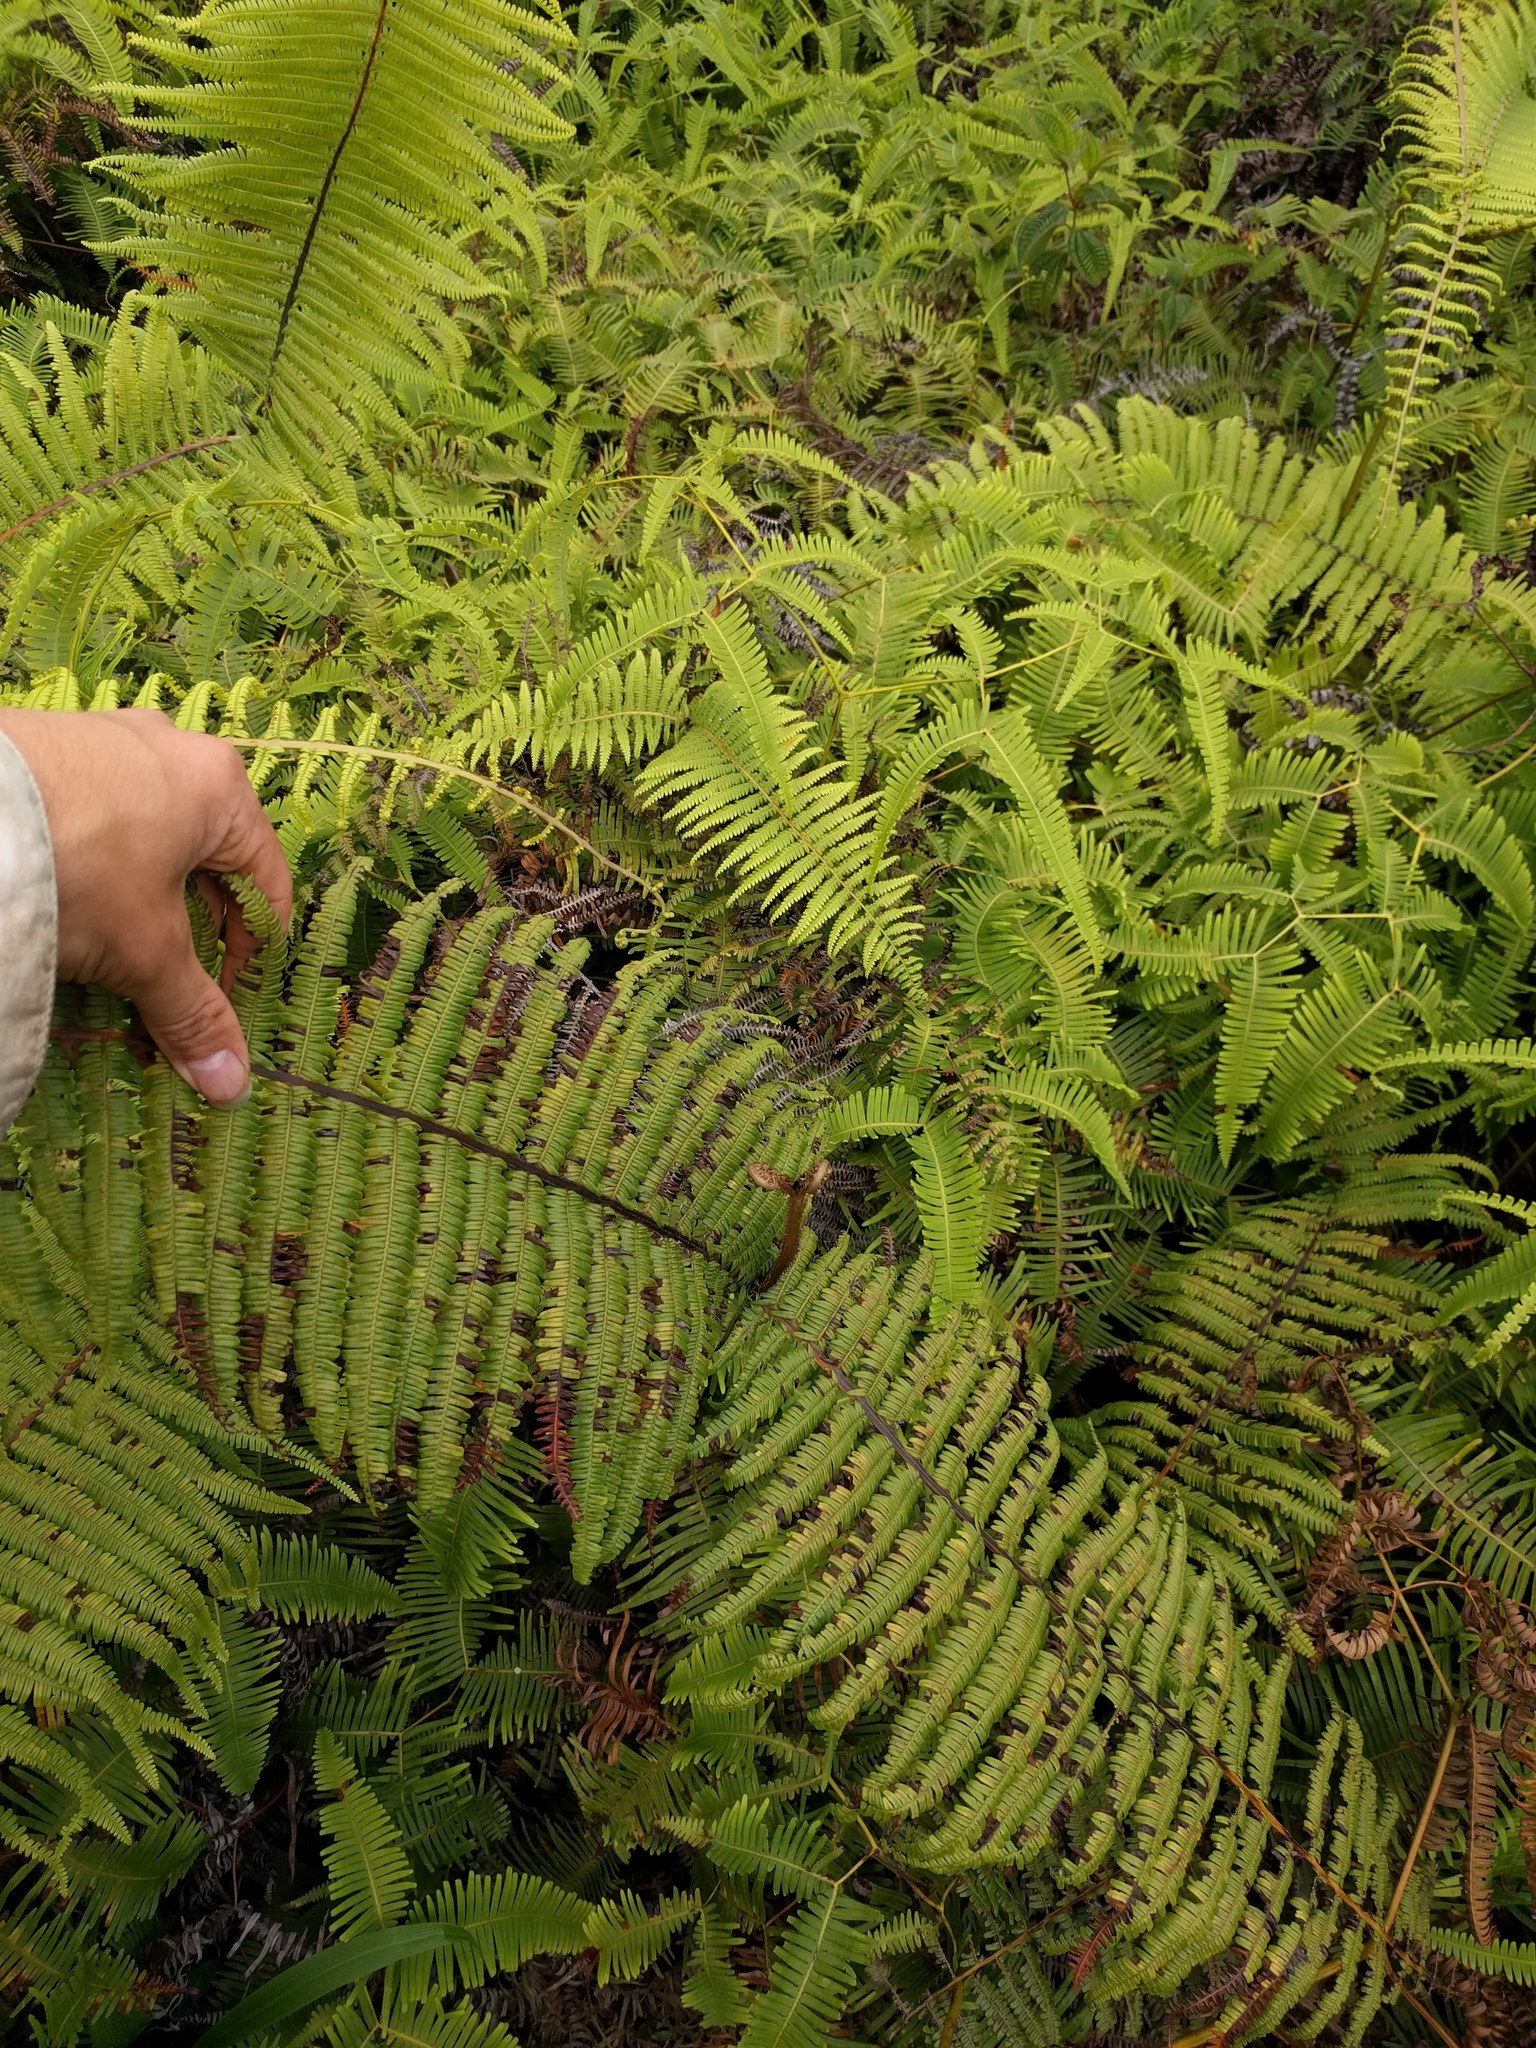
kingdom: Plantae
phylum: Tracheophyta
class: Polypodiopsida
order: Gleicheniales
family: Gleicheniaceae
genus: Diplopterygium
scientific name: Diplopterygium pinnatum
